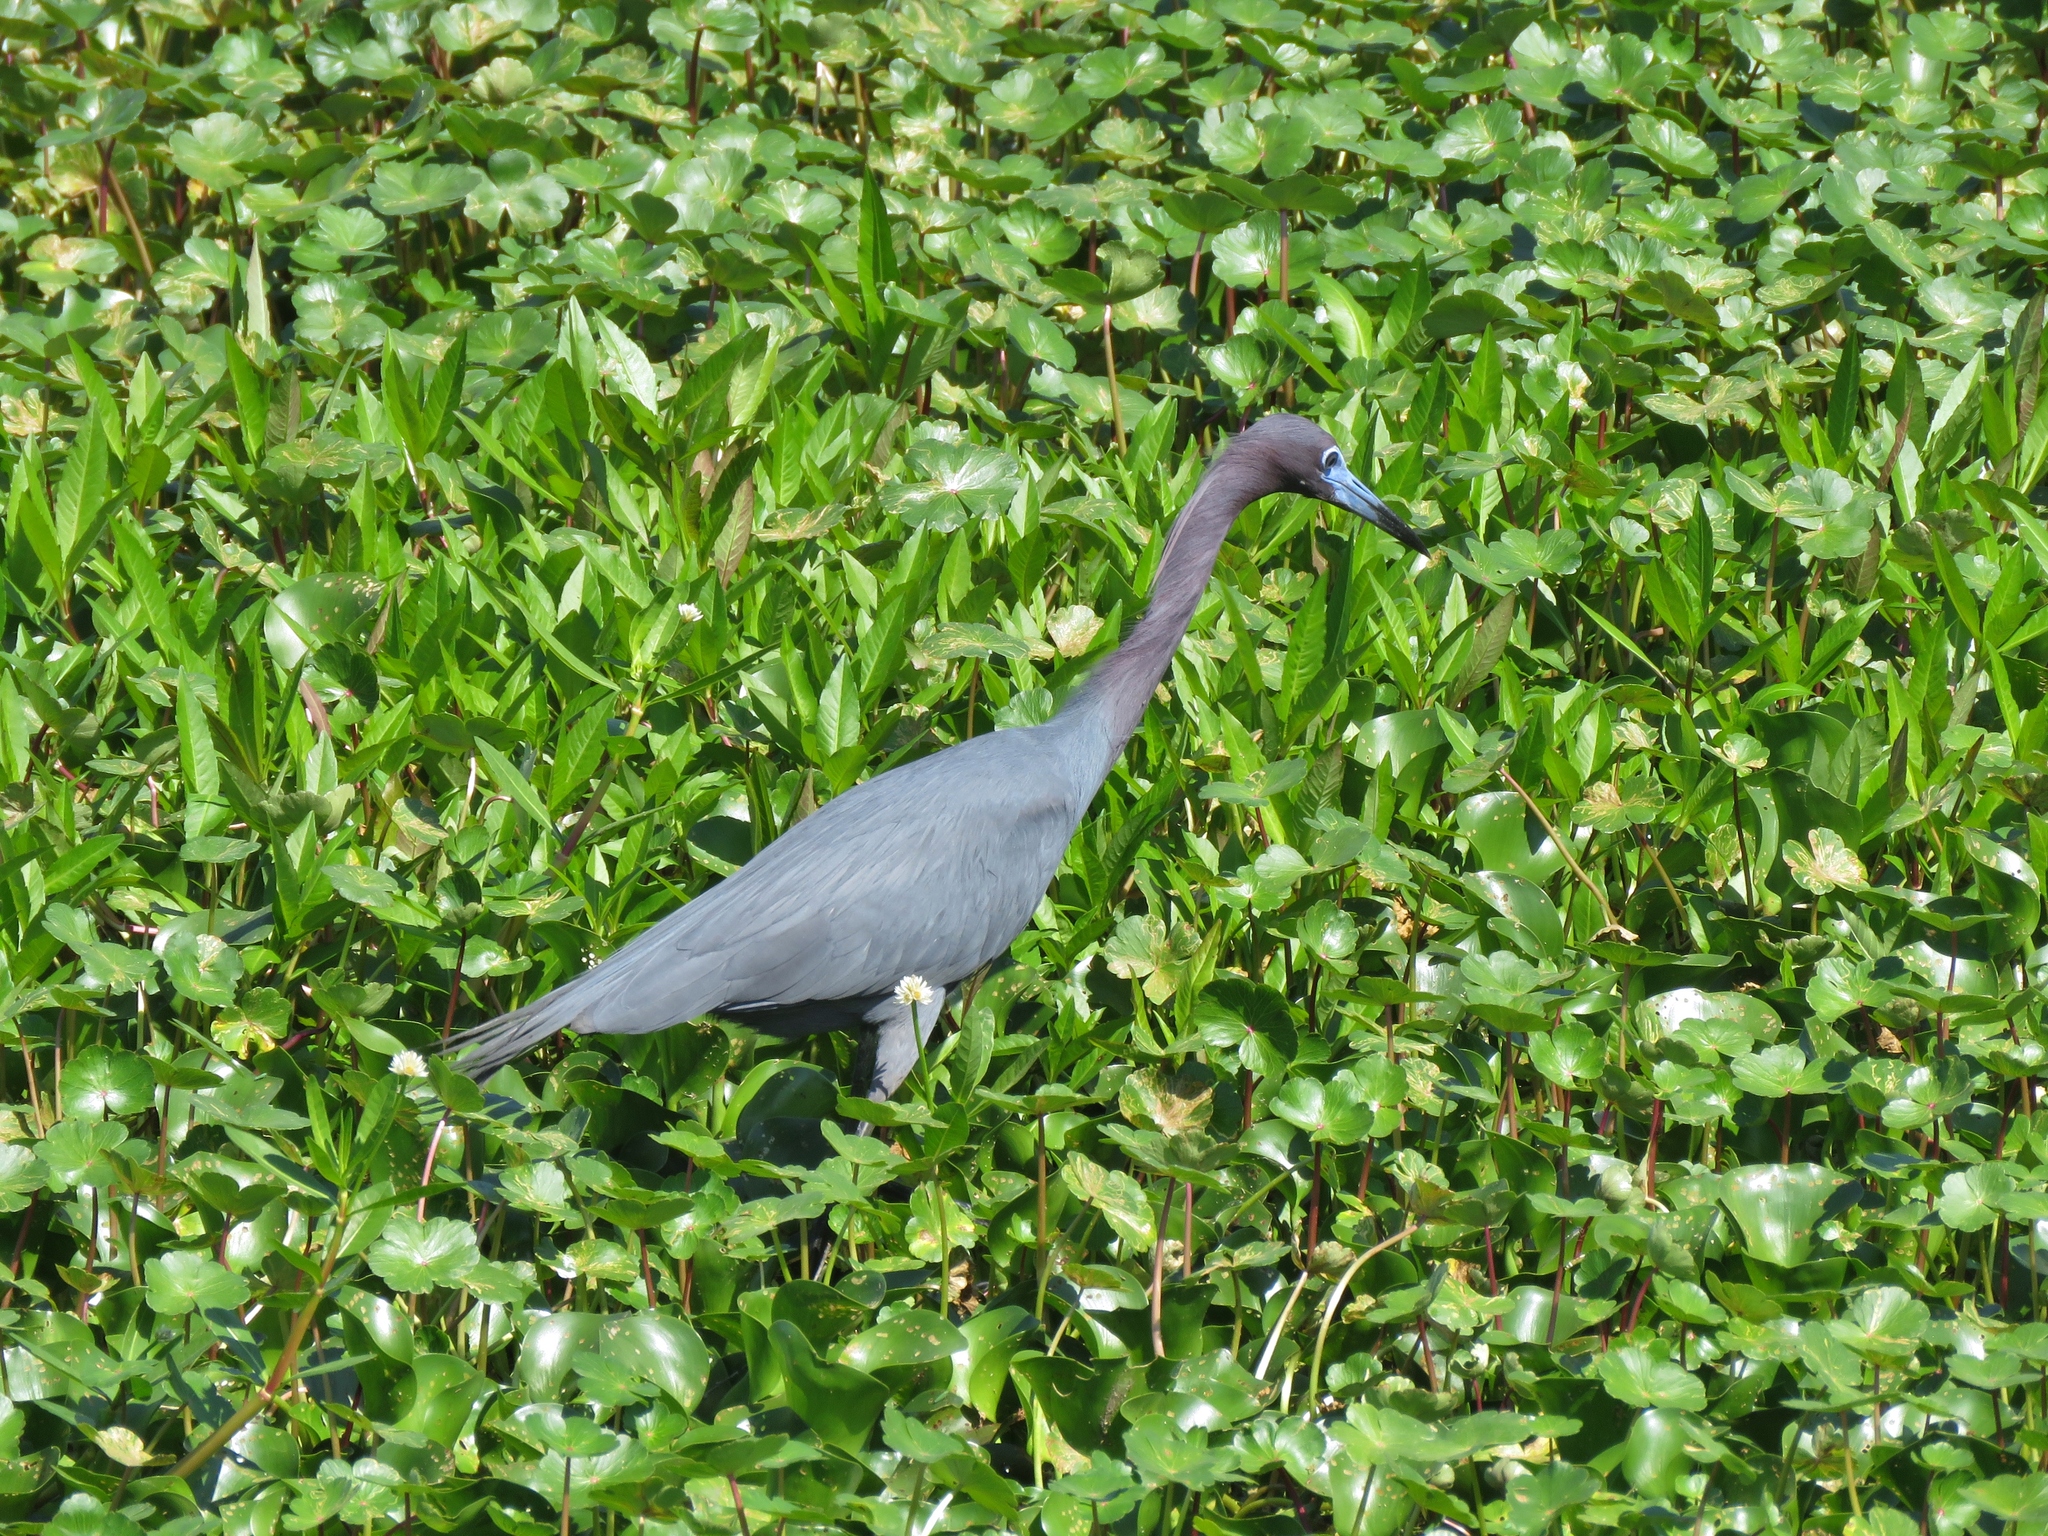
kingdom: Animalia
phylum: Chordata
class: Aves
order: Pelecaniformes
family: Ardeidae
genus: Egretta
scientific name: Egretta caerulea
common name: Little blue heron
